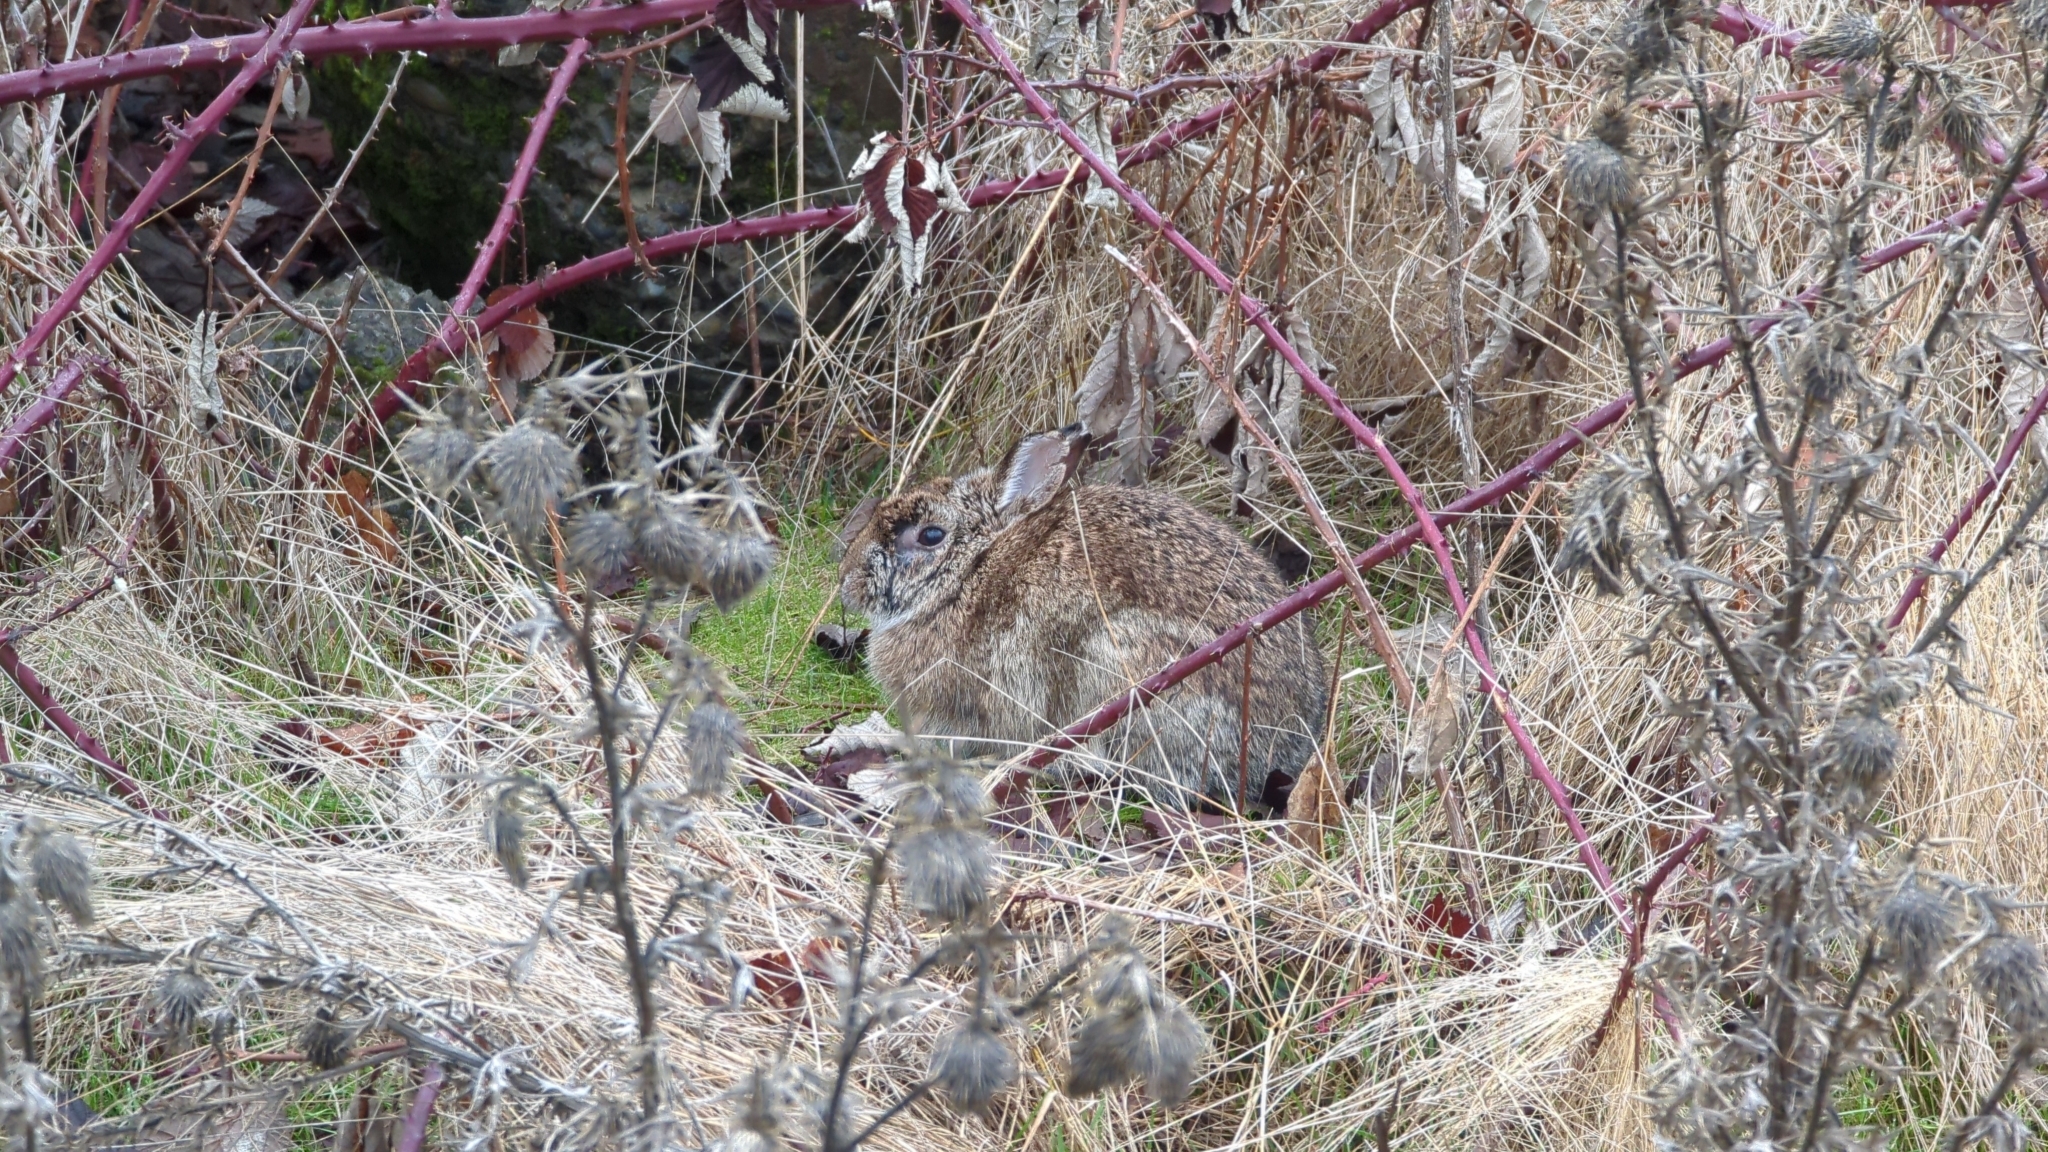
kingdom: Animalia
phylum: Chordata
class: Mammalia
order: Lagomorpha
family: Leporidae
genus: Sylvilagus
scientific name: Sylvilagus floridanus
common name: Eastern cottontail
